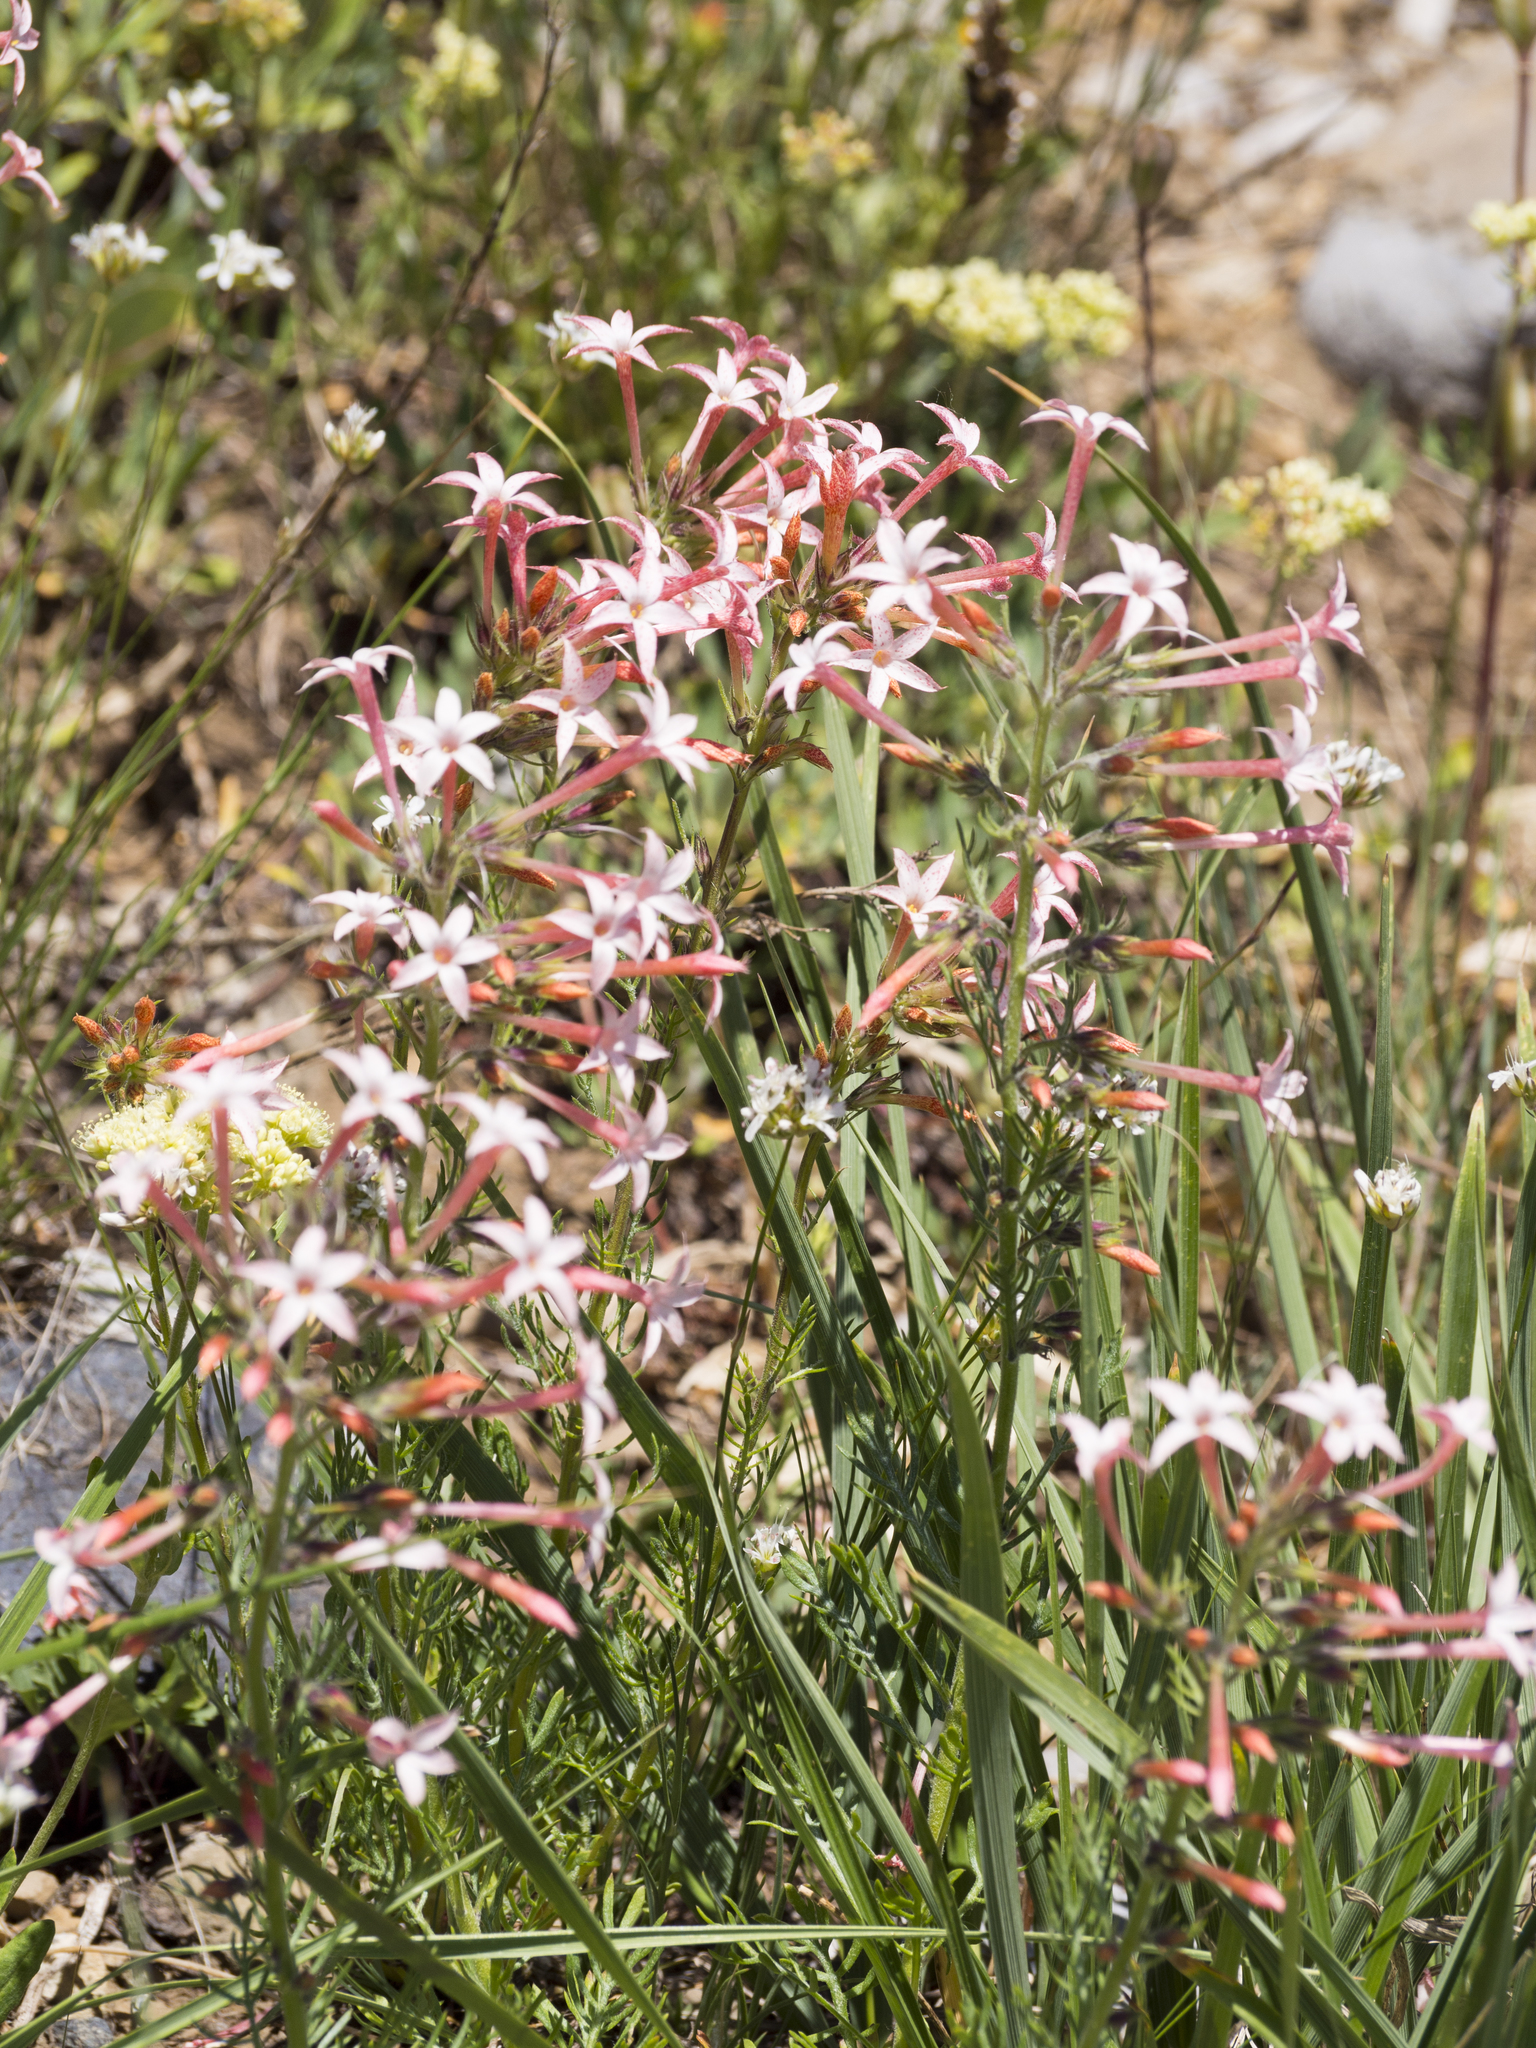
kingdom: Plantae
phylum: Tracheophyta
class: Magnoliopsida
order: Ericales
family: Polemoniaceae
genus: Ipomopsis
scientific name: Ipomopsis tenuituba
